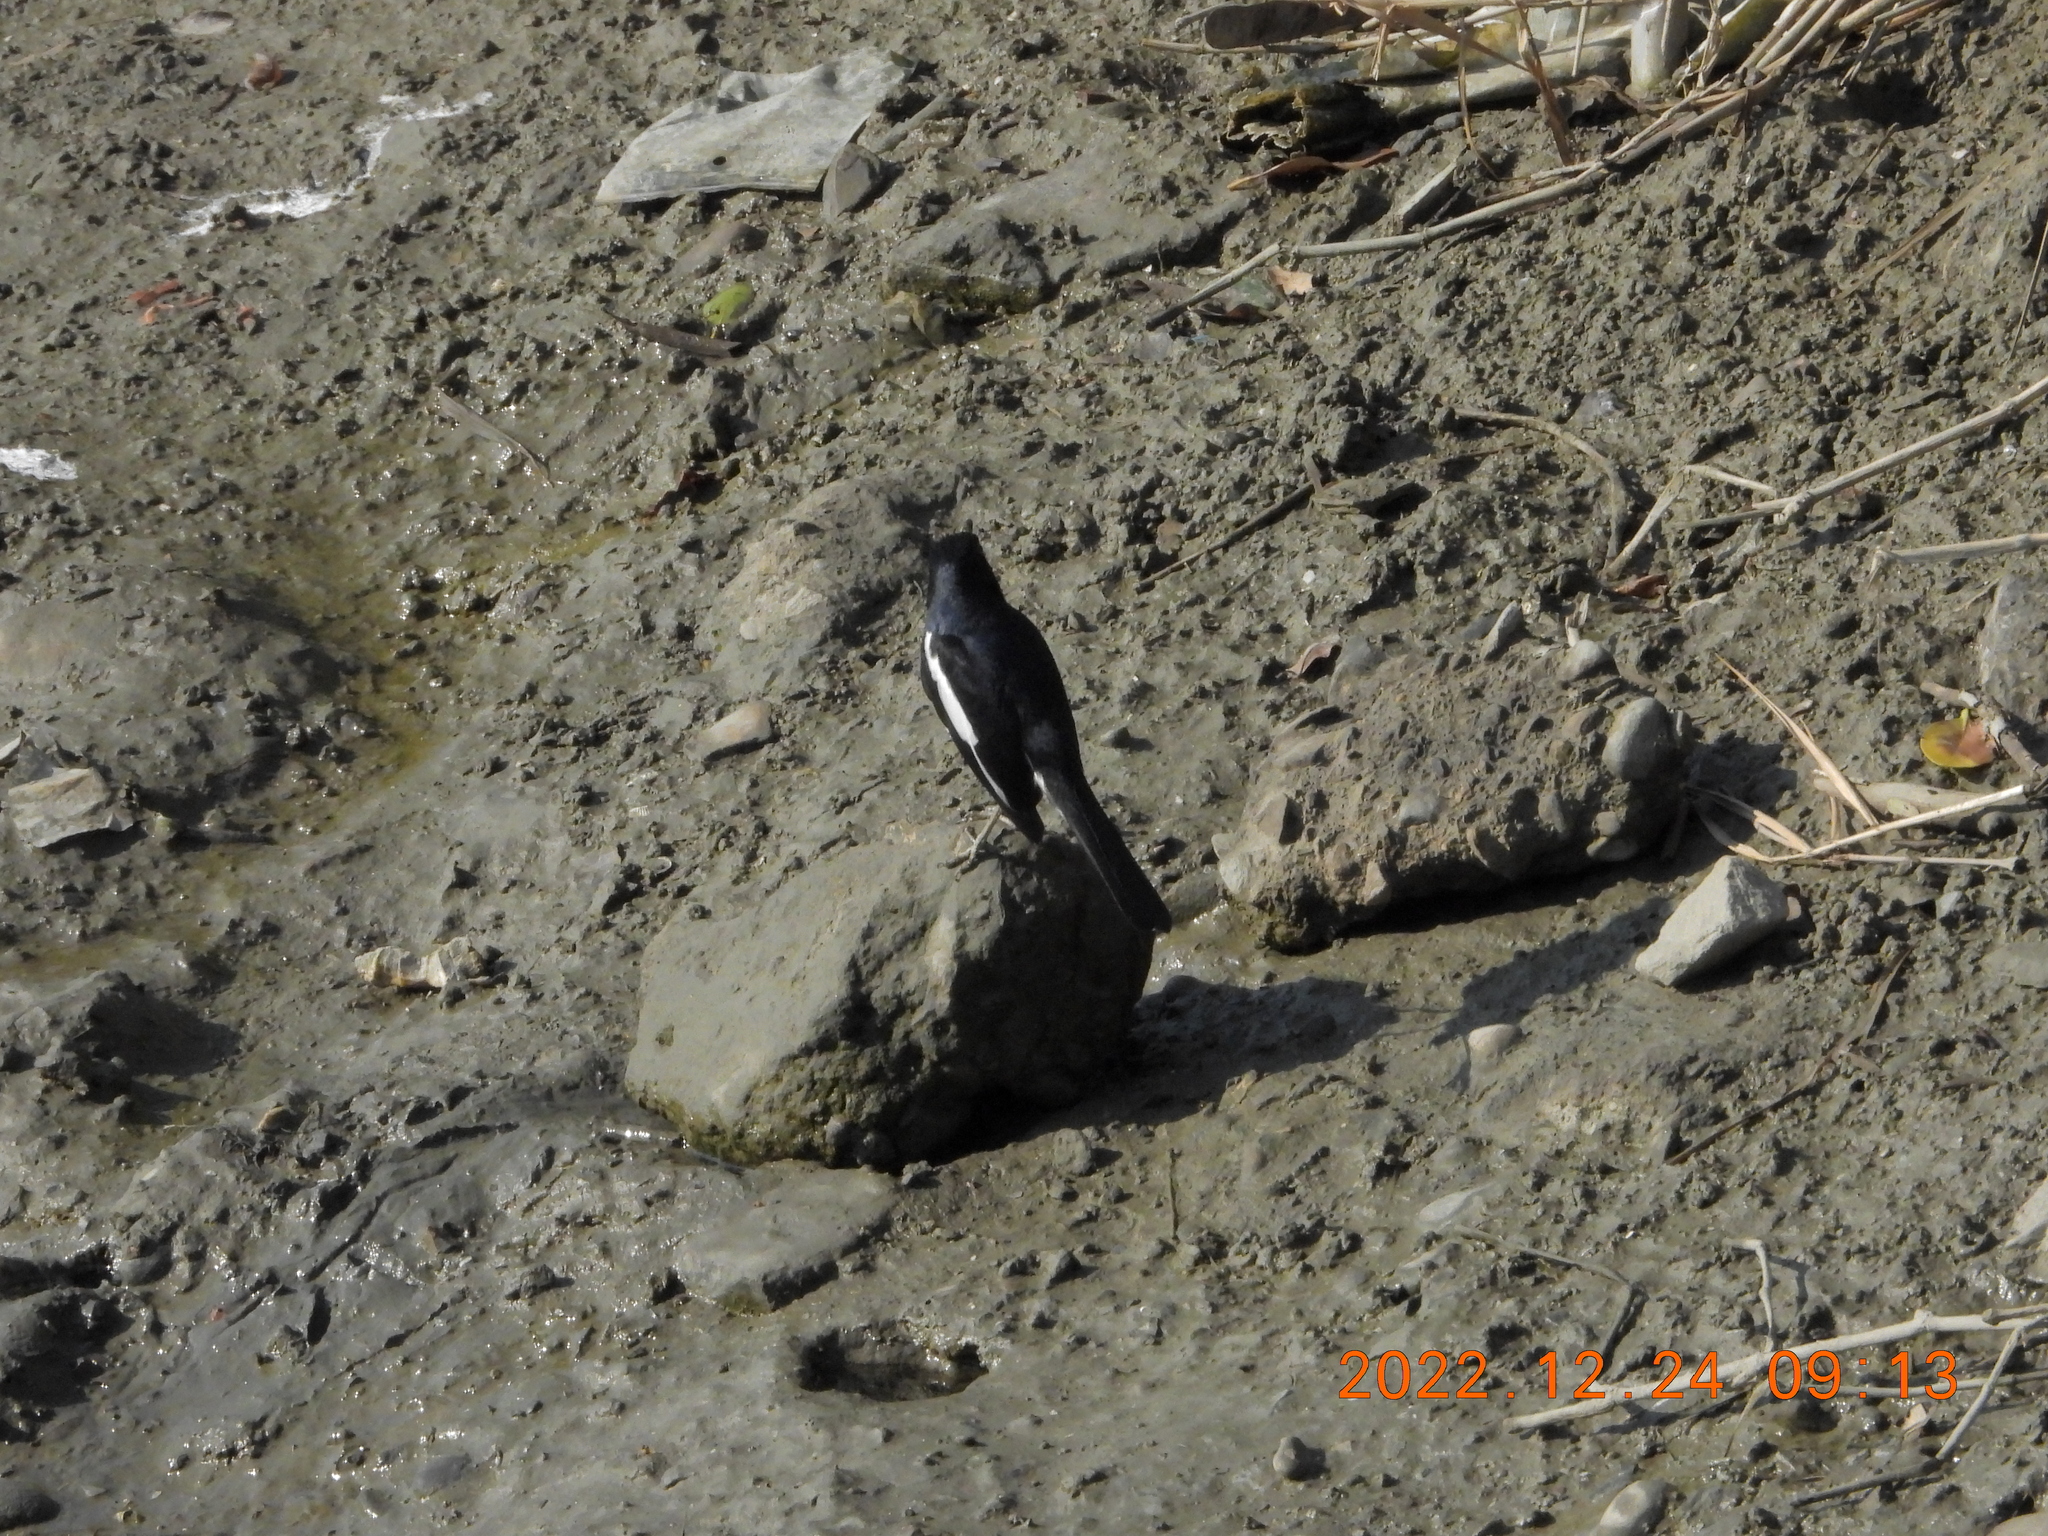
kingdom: Animalia
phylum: Chordata
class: Aves
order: Passeriformes
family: Muscicapidae
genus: Copsychus
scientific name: Copsychus saularis
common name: Oriental magpie-robin
